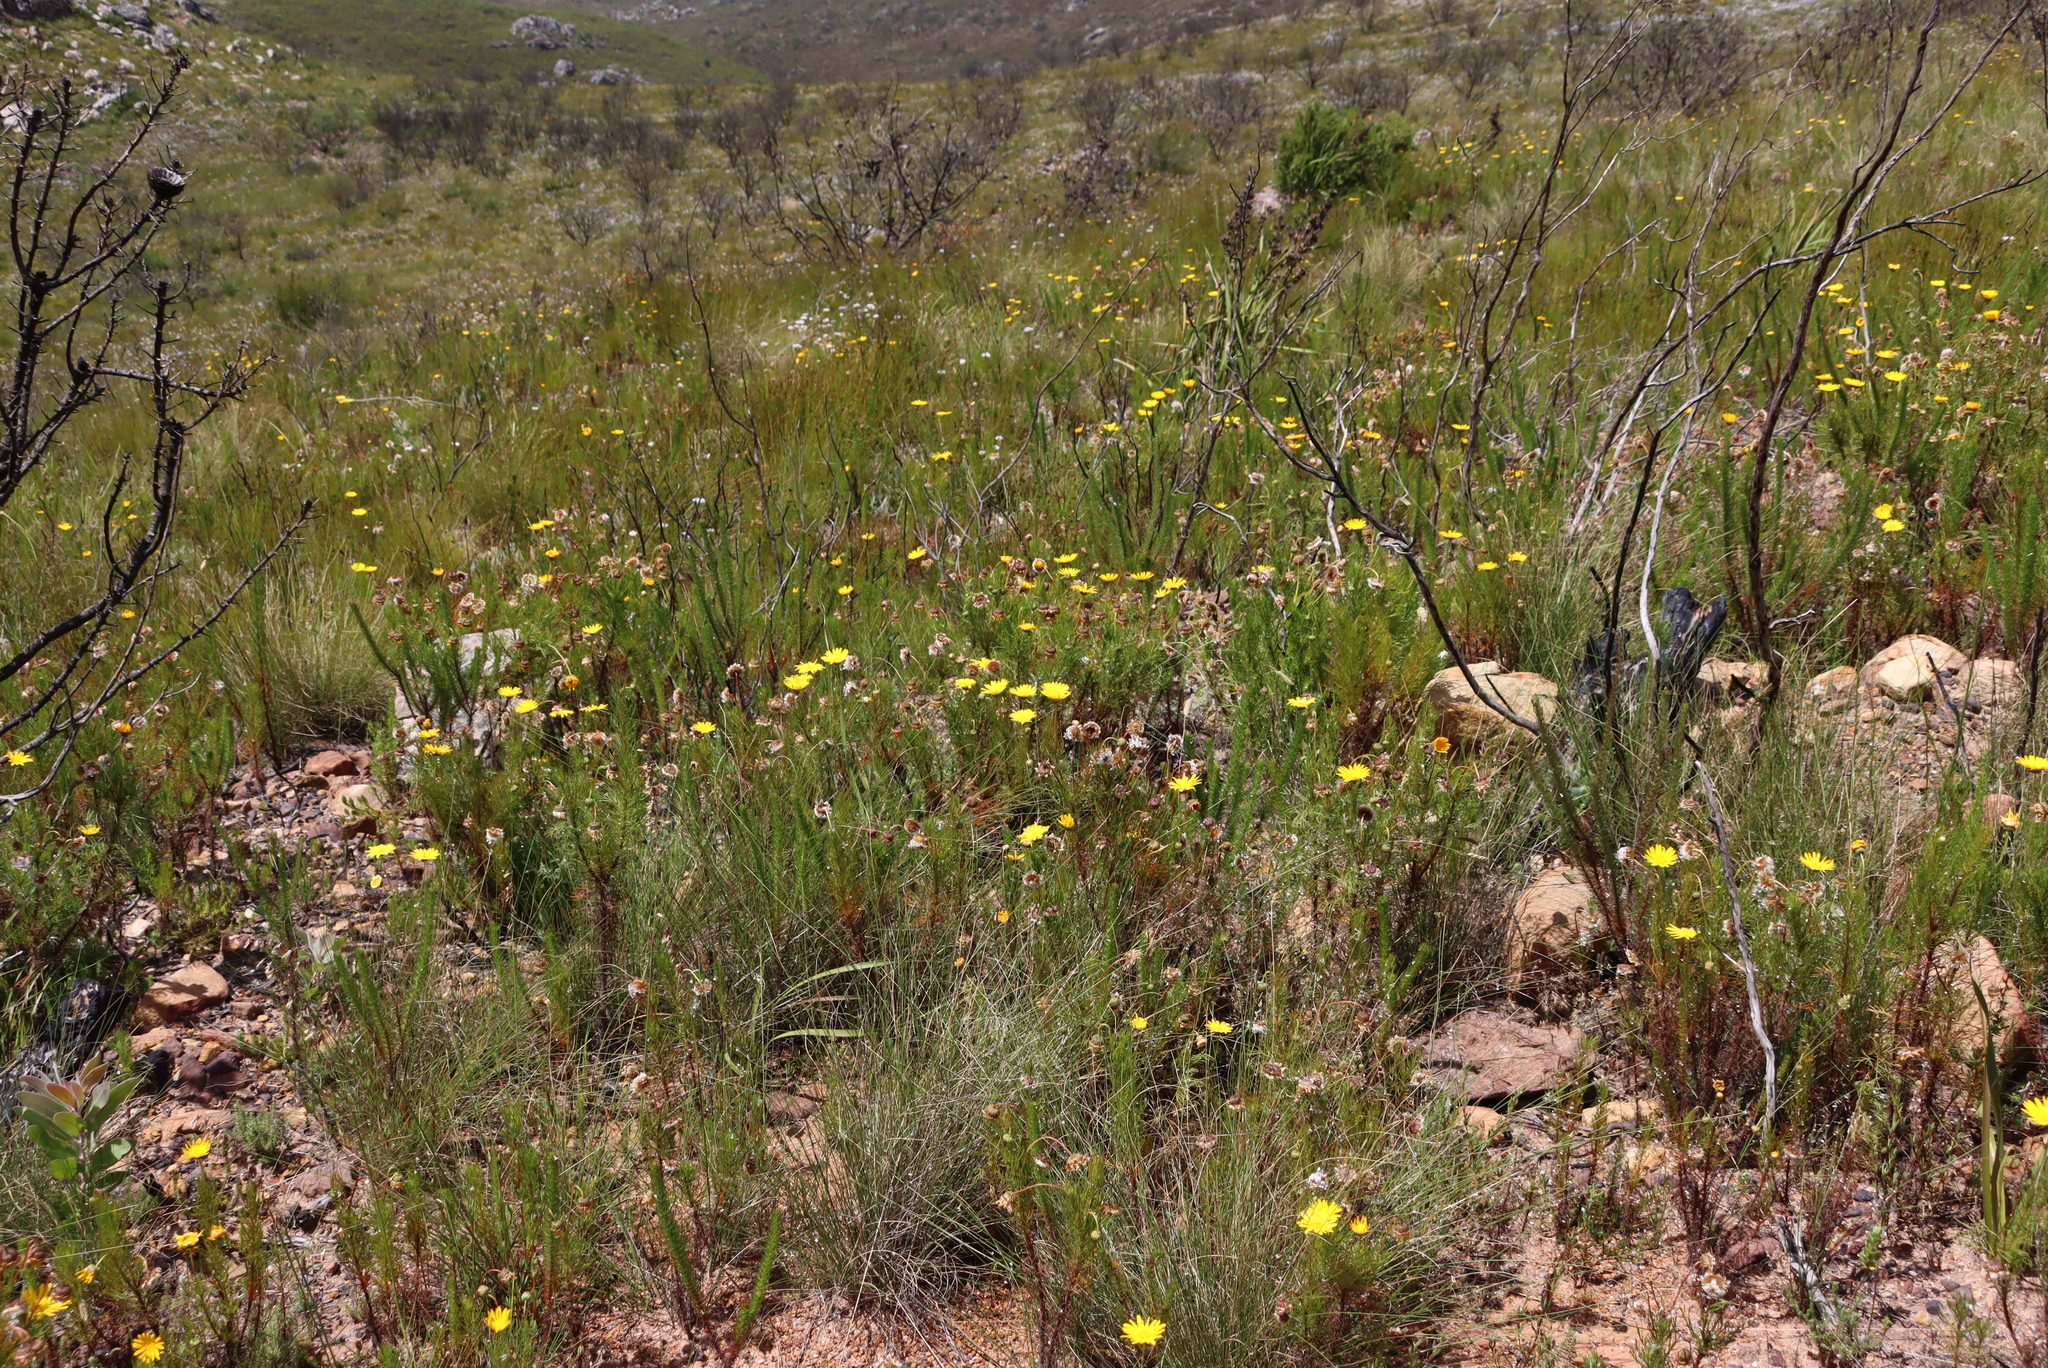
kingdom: Plantae
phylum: Tracheophyta
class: Magnoliopsida
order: Proteales
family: Proteaceae
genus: Protea
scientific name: Protea repens
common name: Sugarbush
